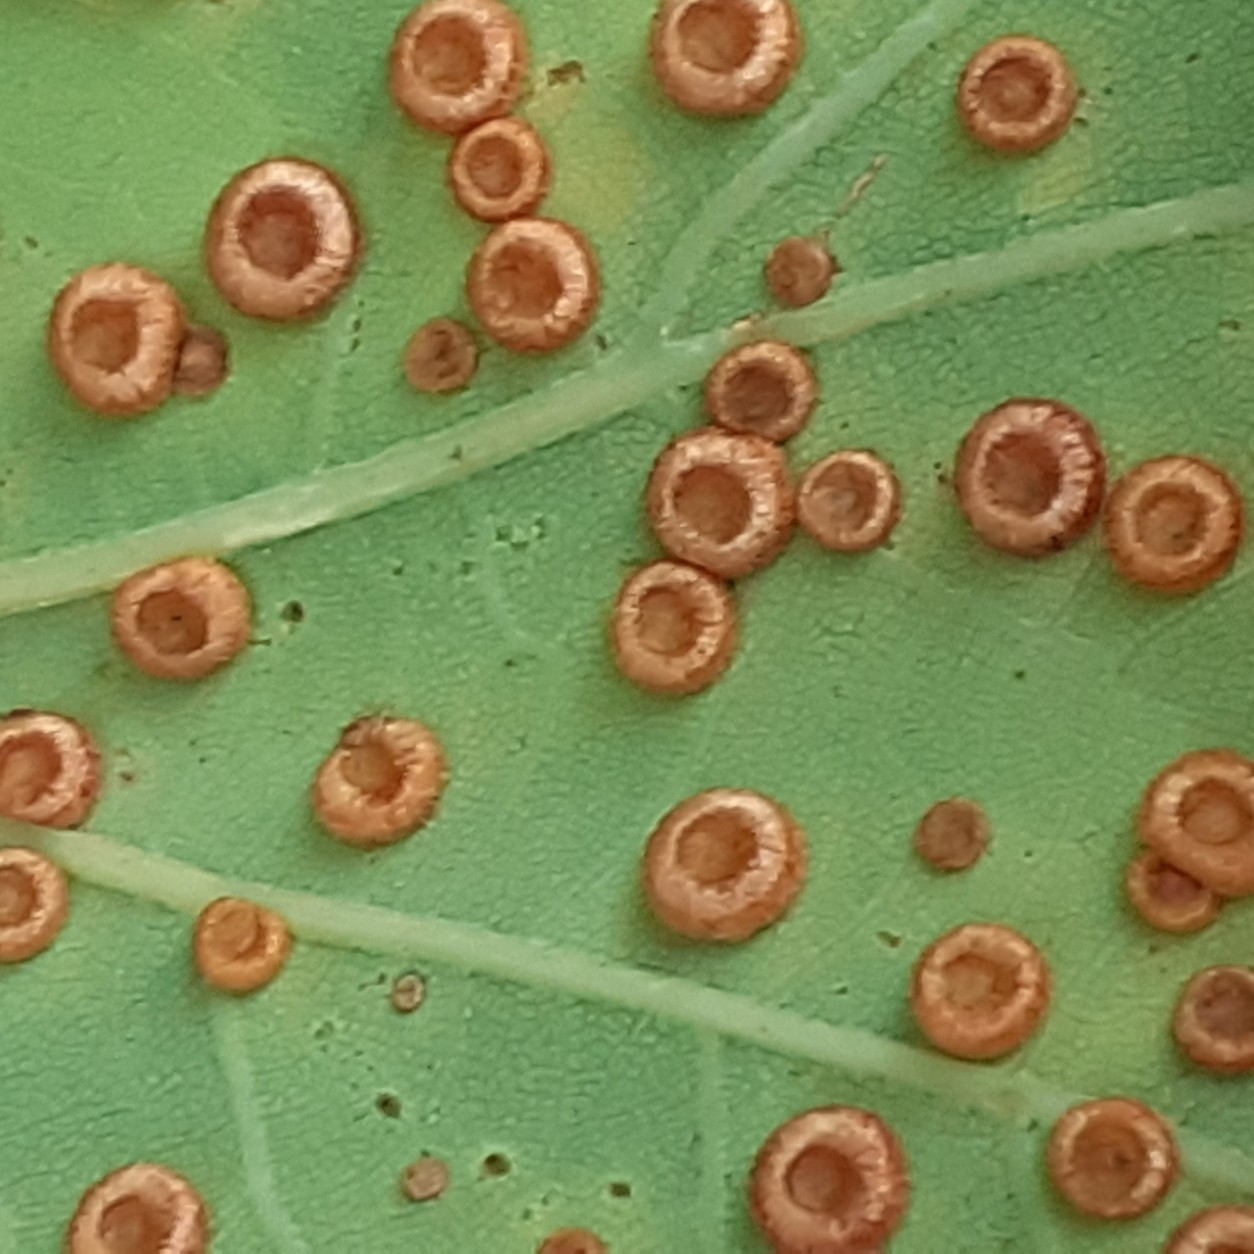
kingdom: Animalia
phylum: Arthropoda
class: Insecta
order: Hymenoptera
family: Cynipidae
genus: Neuroterus
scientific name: Neuroterus numismalis
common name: Silk-button spangle gall
